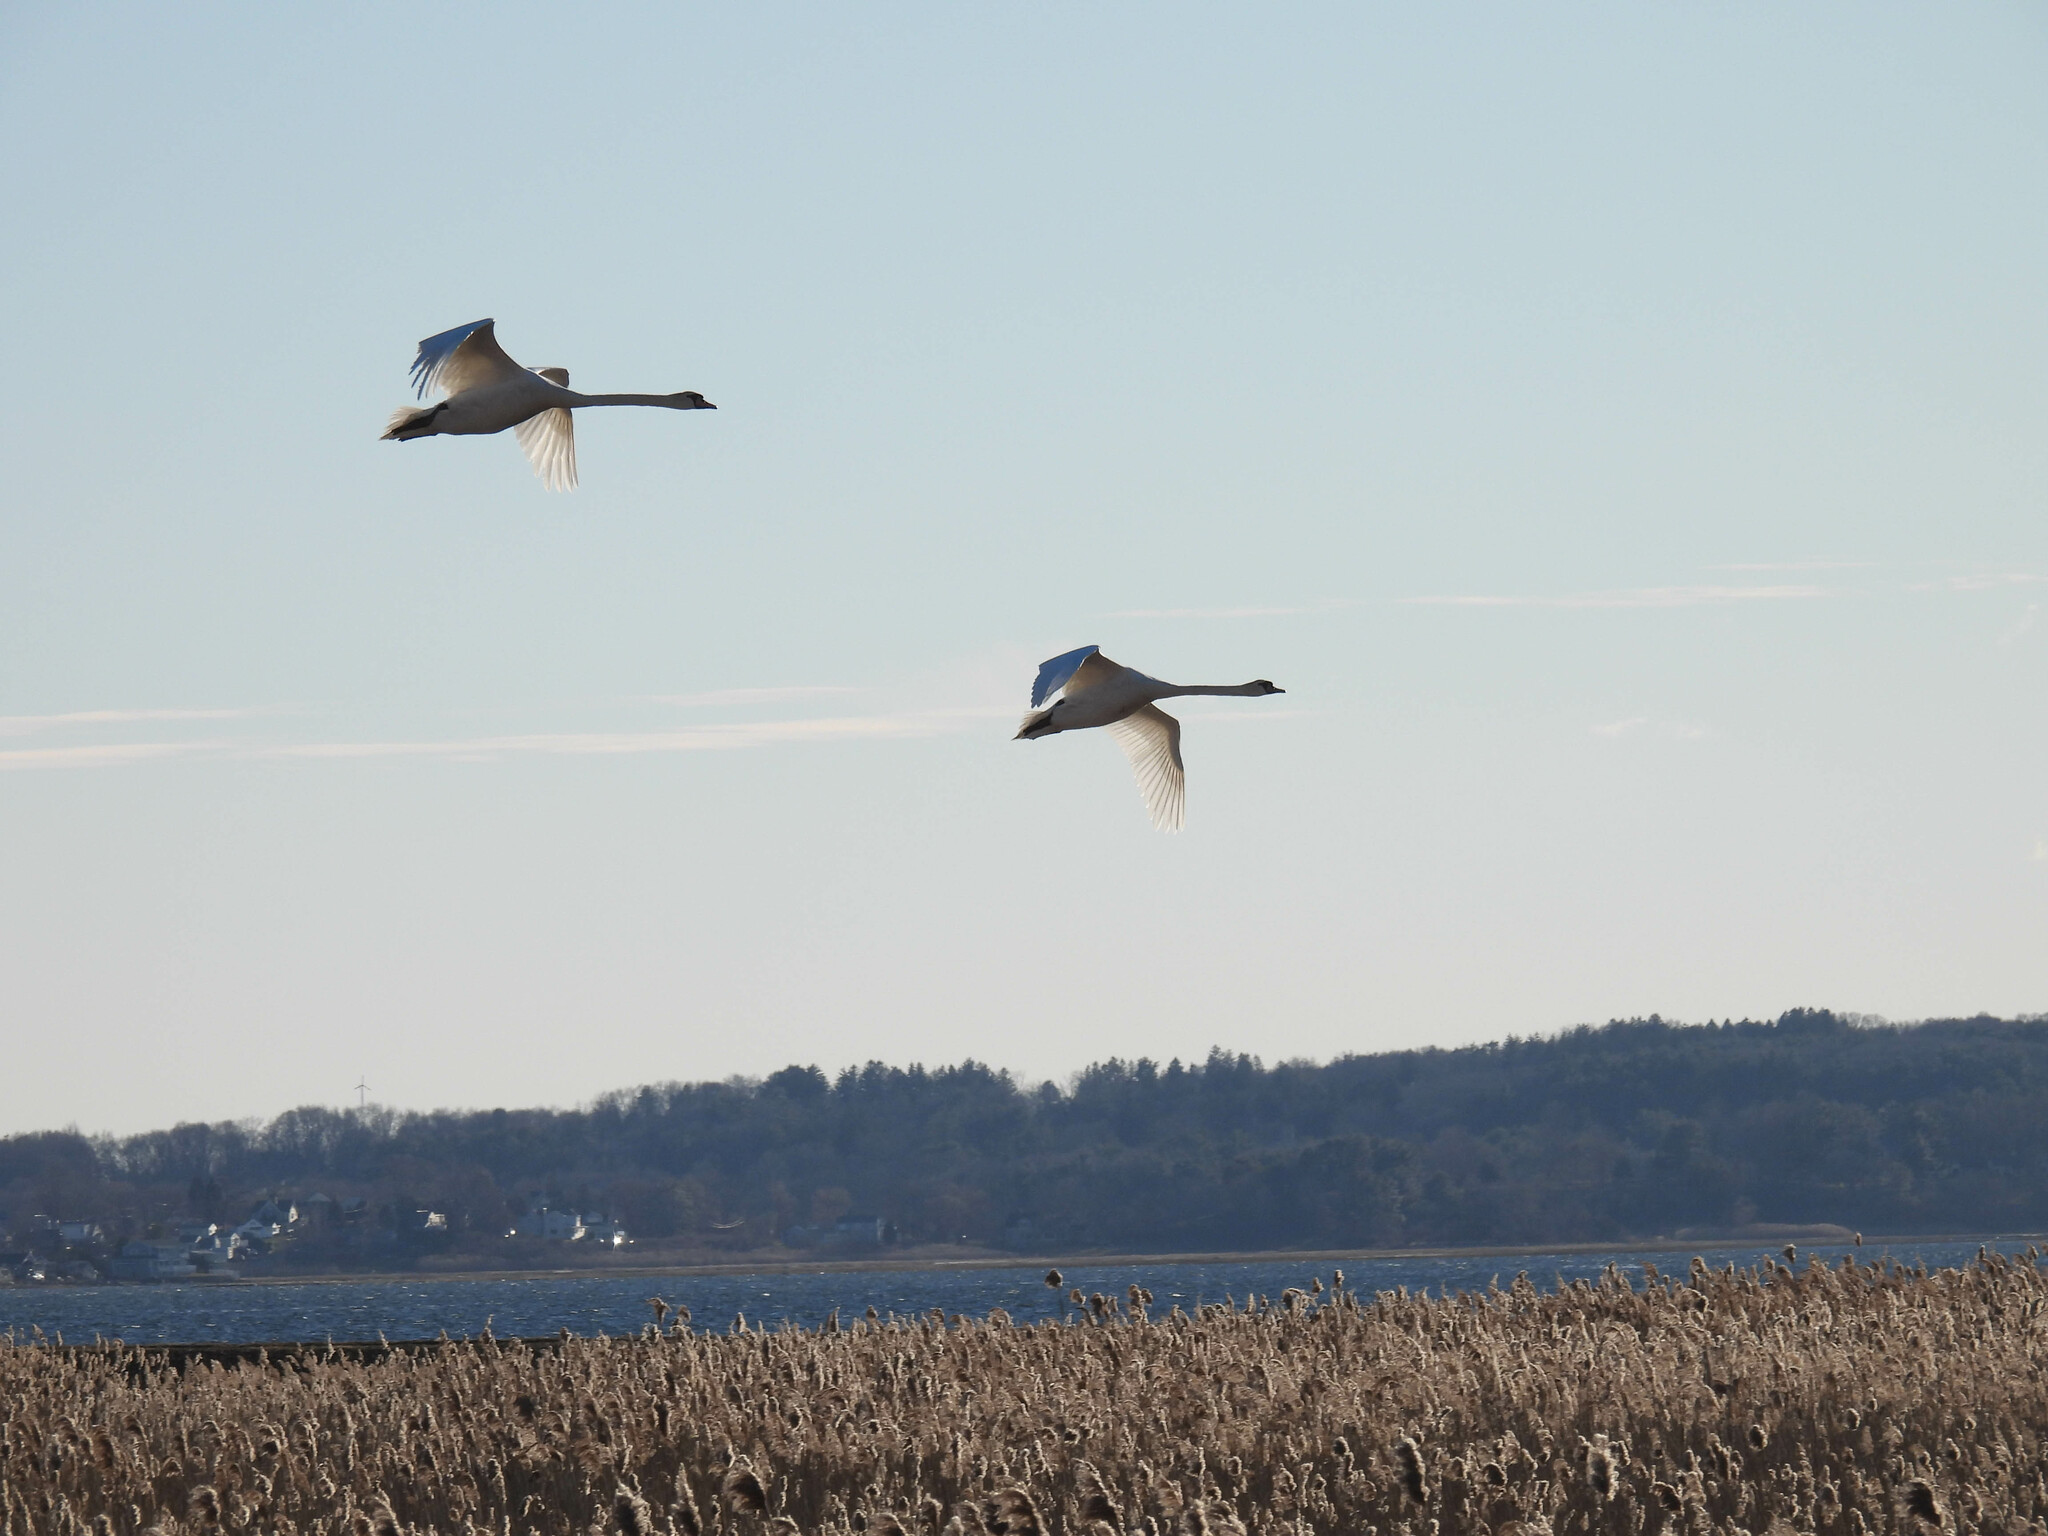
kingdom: Animalia
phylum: Chordata
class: Aves
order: Anseriformes
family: Anatidae
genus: Cygnus
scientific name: Cygnus olor
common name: Mute swan
